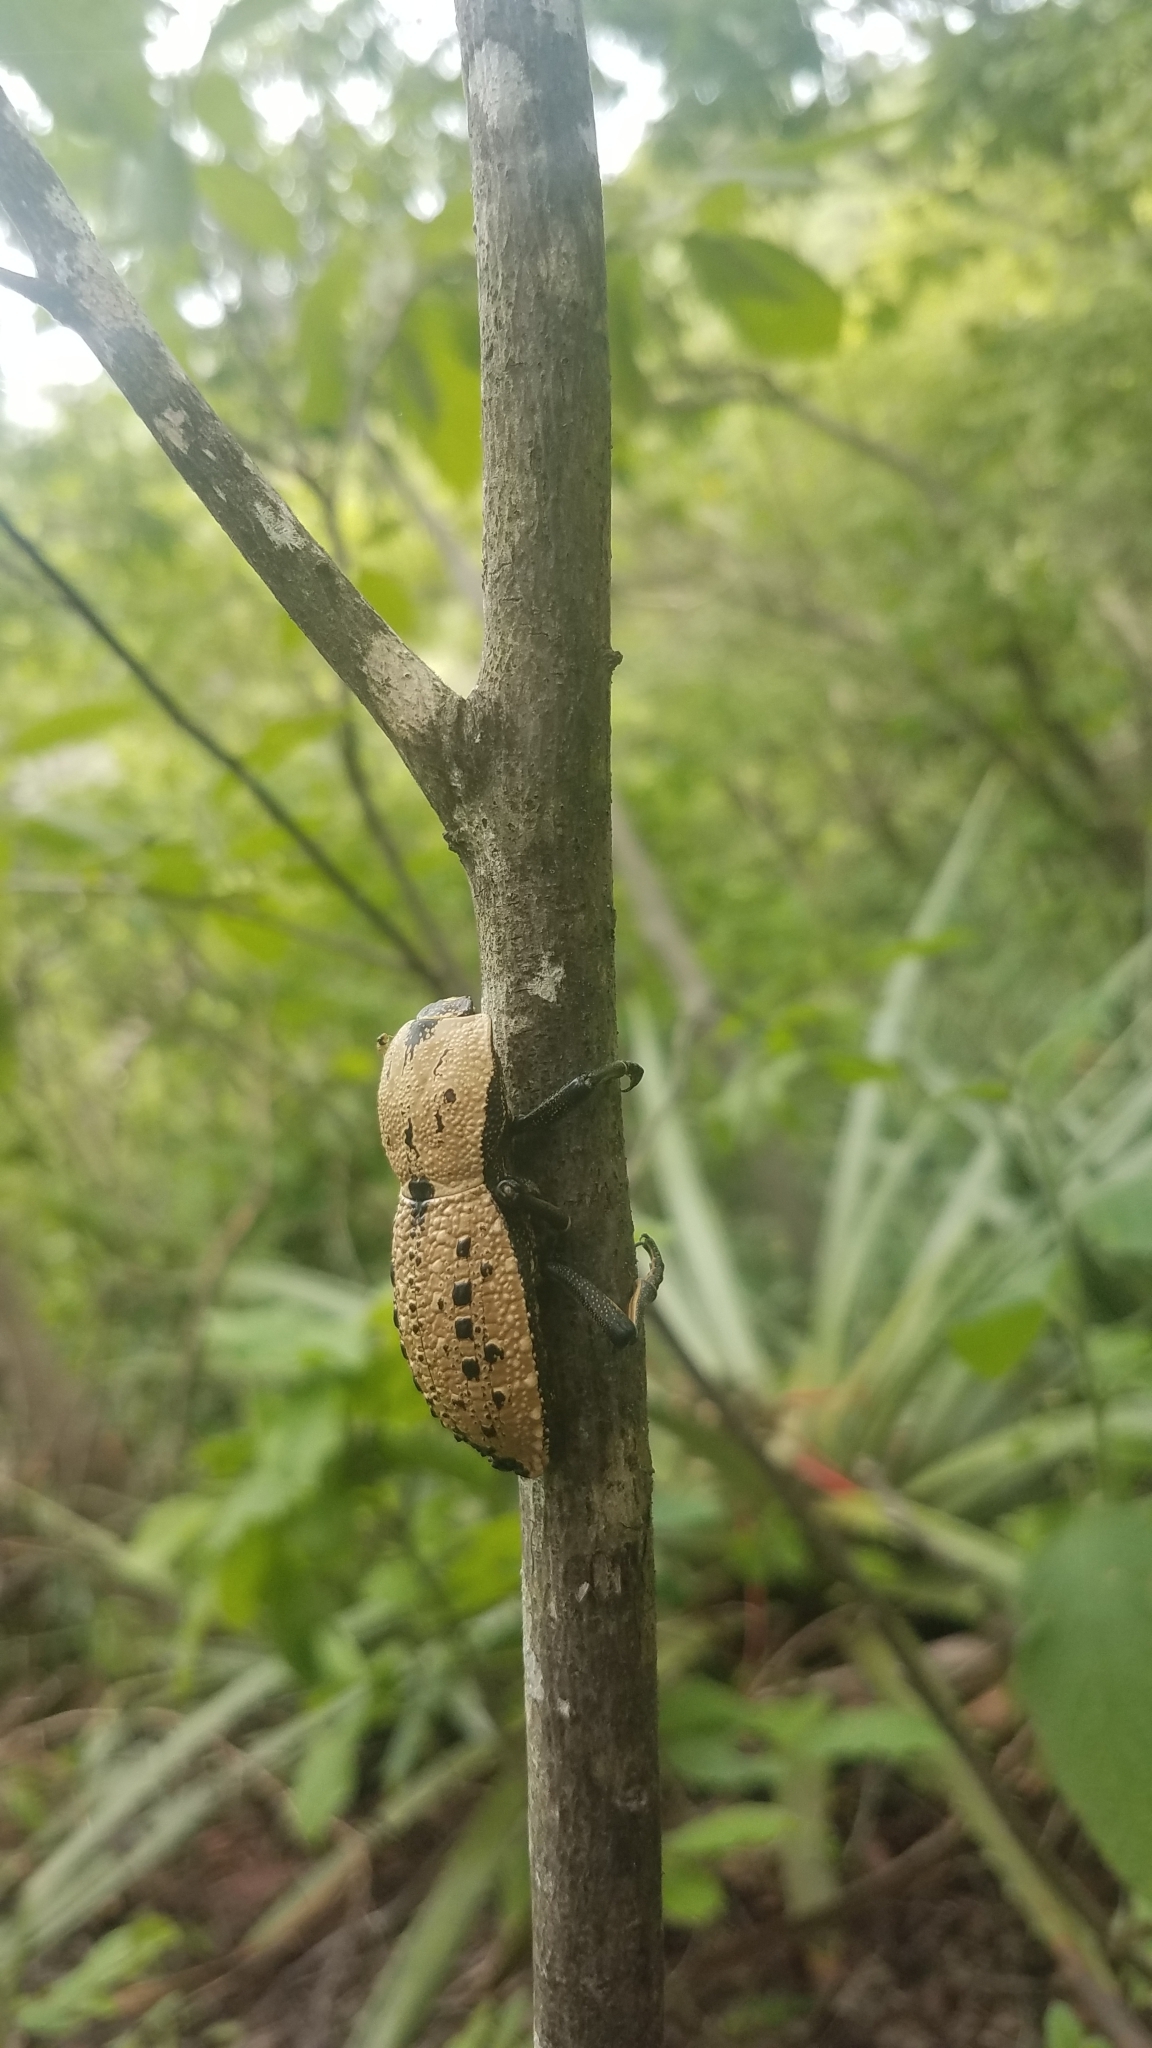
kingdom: Animalia
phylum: Arthropoda
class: Insecta
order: Coleoptera
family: Zopheridae
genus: Zopherus
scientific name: Zopherus
